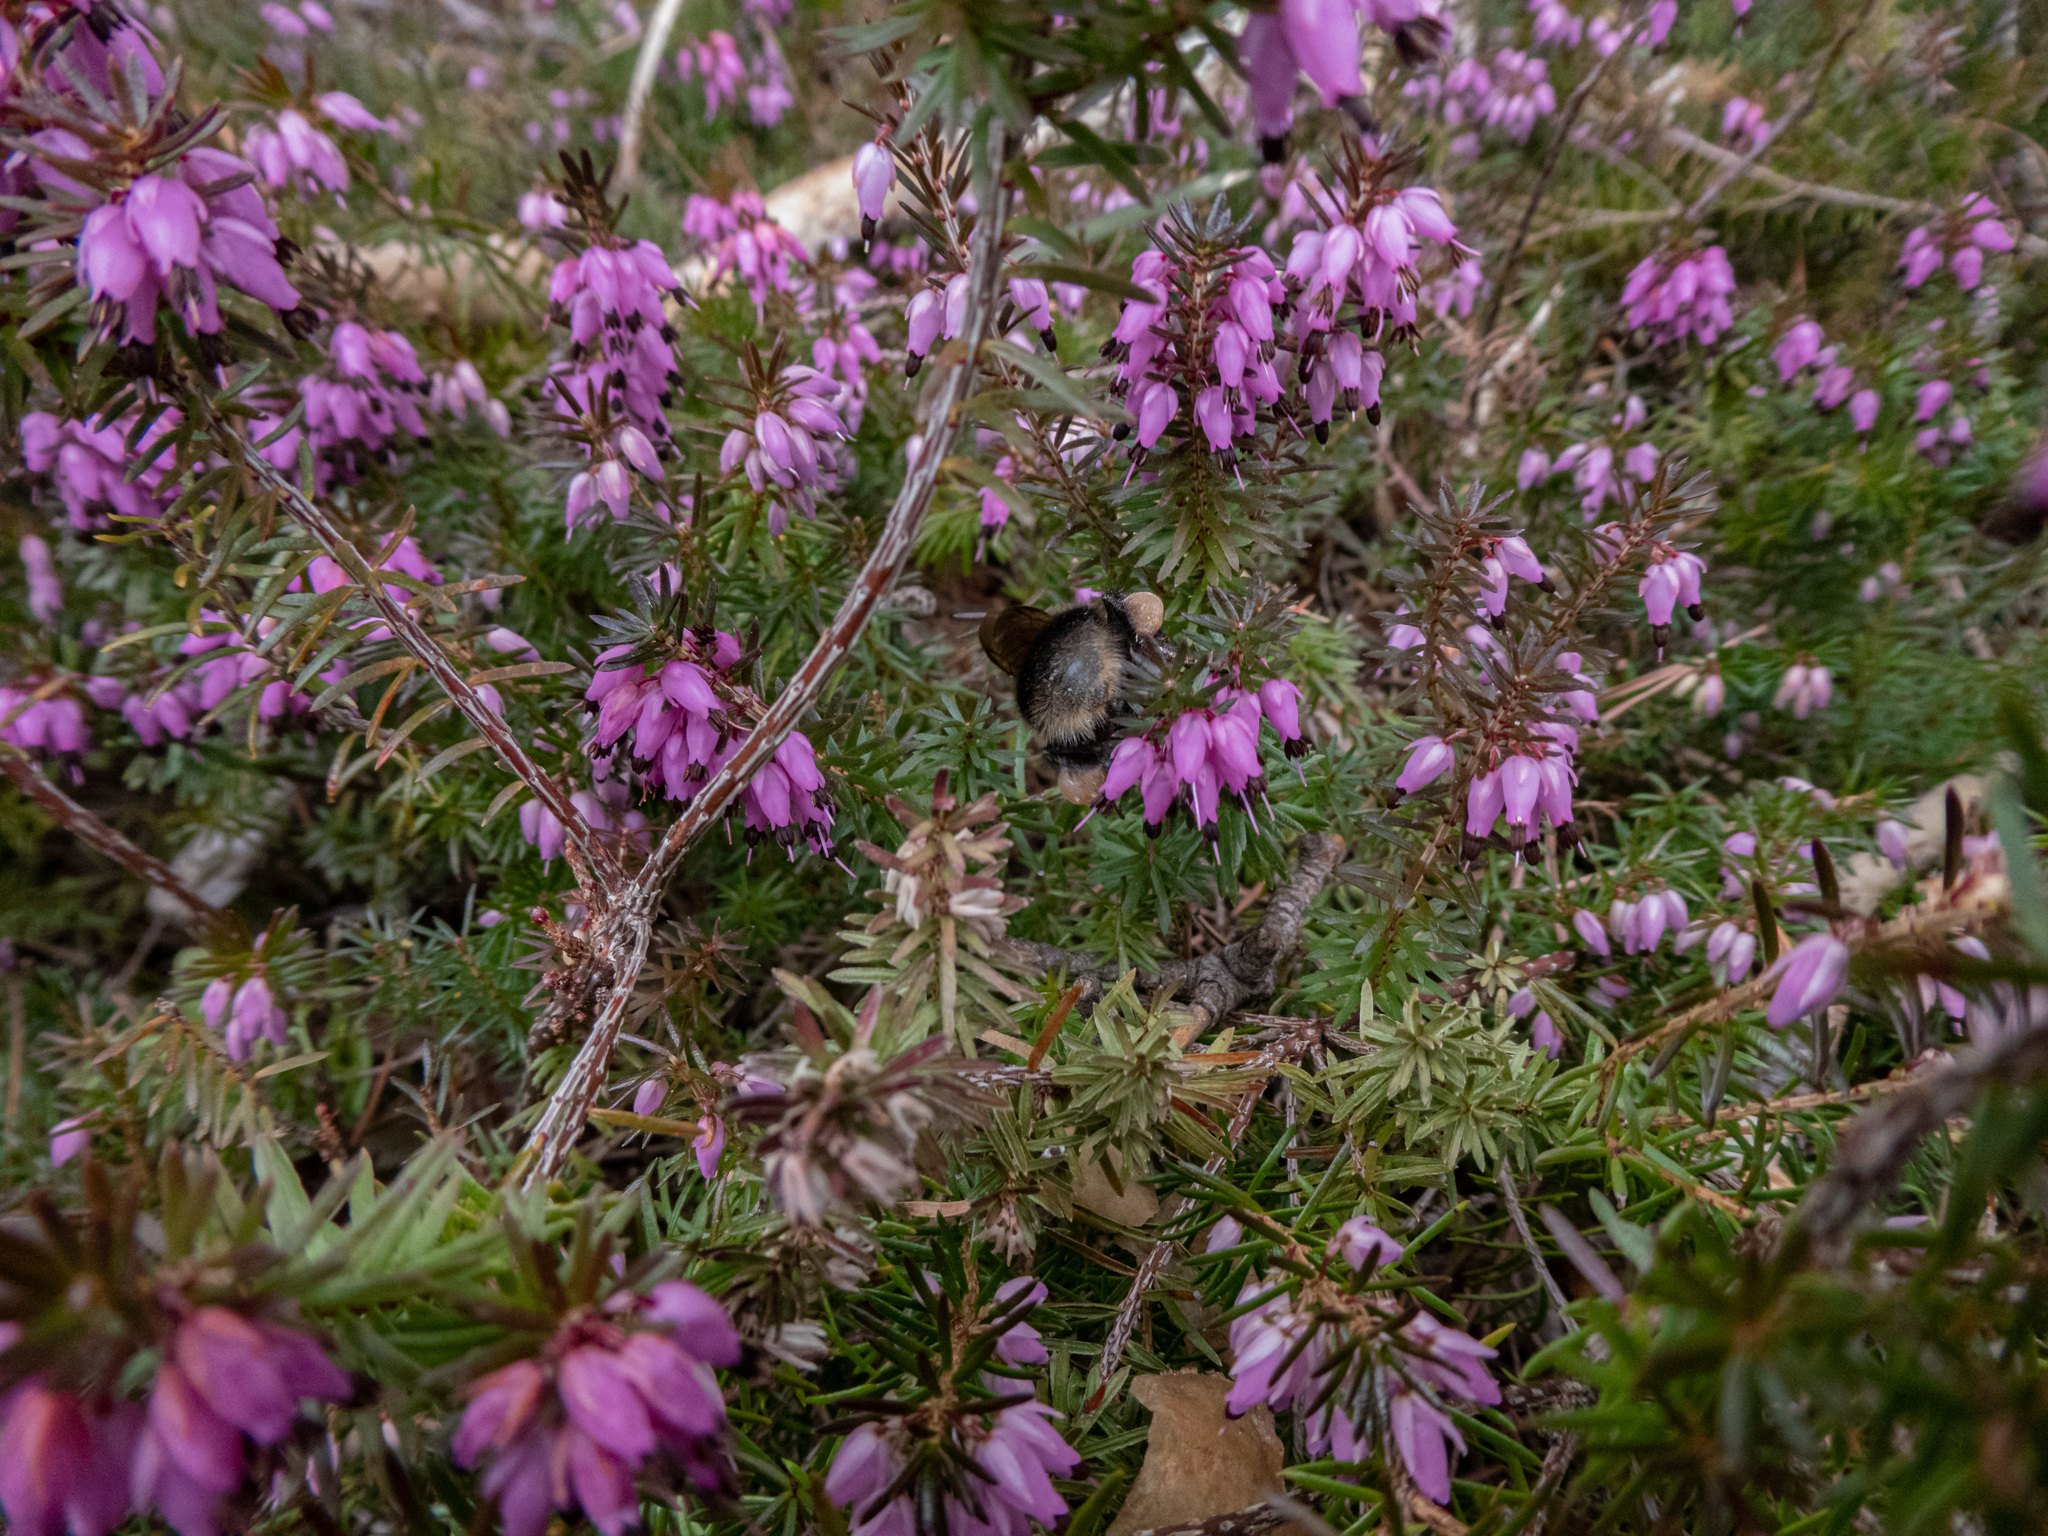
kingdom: Animalia
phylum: Arthropoda
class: Insecta
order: Hymenoptera
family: Apidae
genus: Bombus
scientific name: Bombus jonellus
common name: Heath humble-bee
